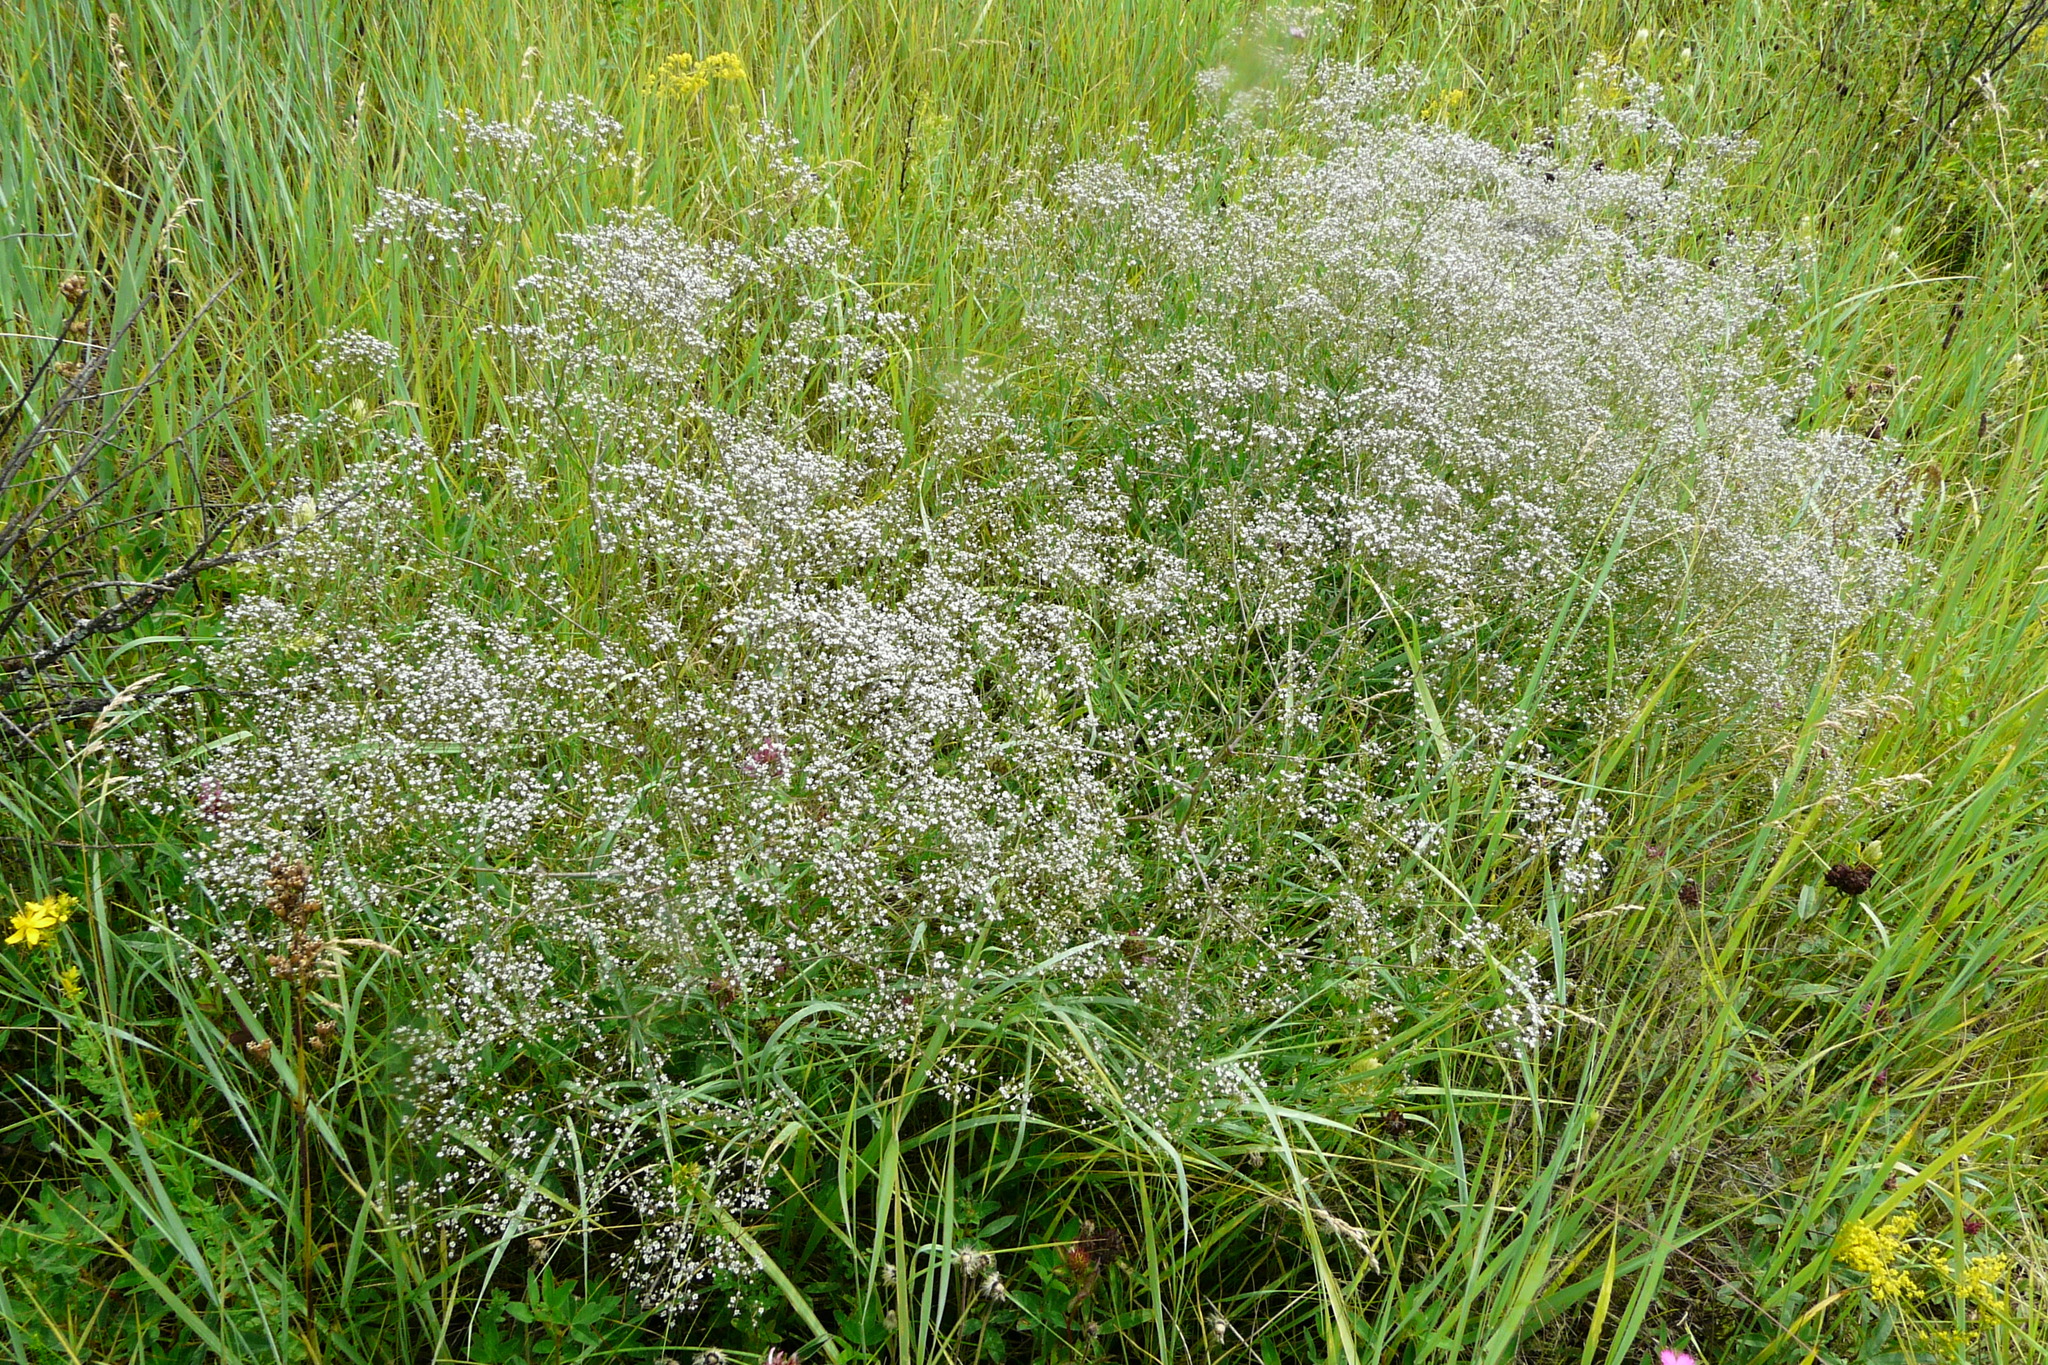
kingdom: Plantae
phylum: Tracheophyta
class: Magnoliopsida
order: Caryophyllales
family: Caryophyllaceae
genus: Gypsophila
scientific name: Gypsophila paniculata
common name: Baby's-breath
